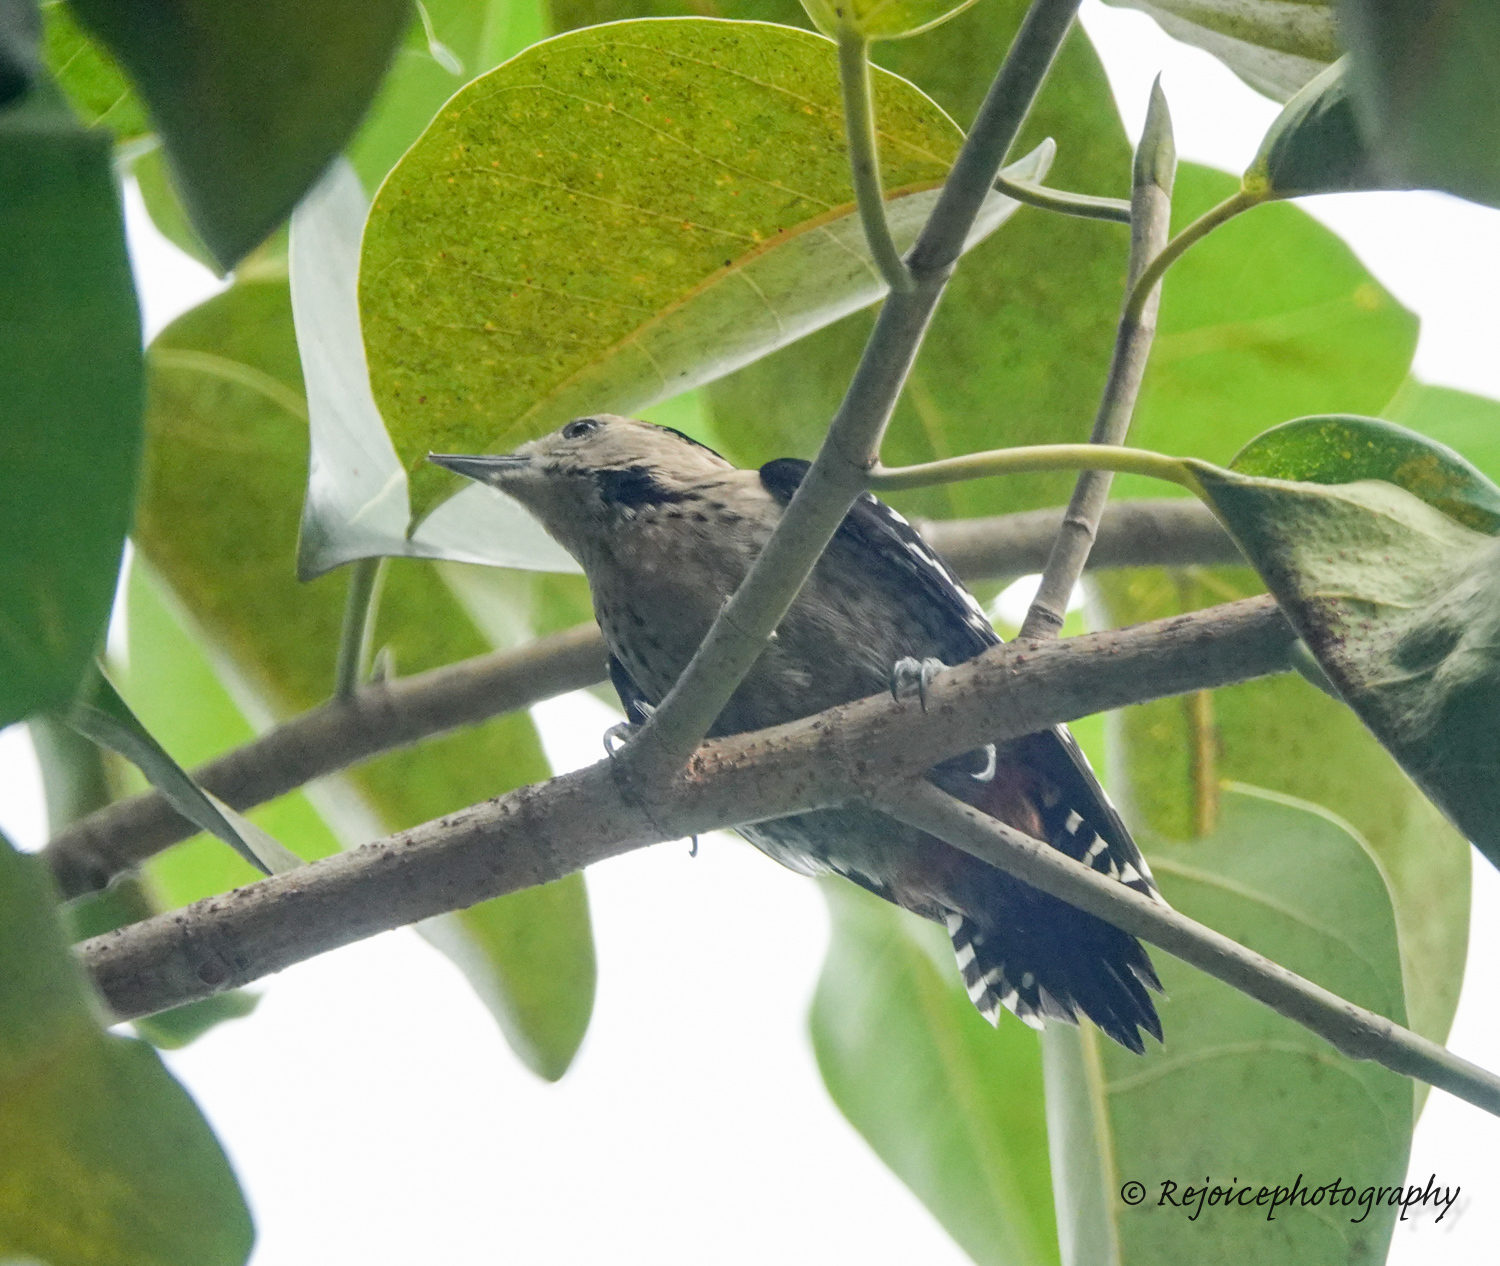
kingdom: Animalia
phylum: Chordata
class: Aves
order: Piciformes
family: Picidae
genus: Dendrocopos
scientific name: Dendrocopos macei
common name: Fulvous-breasted woodpecker
